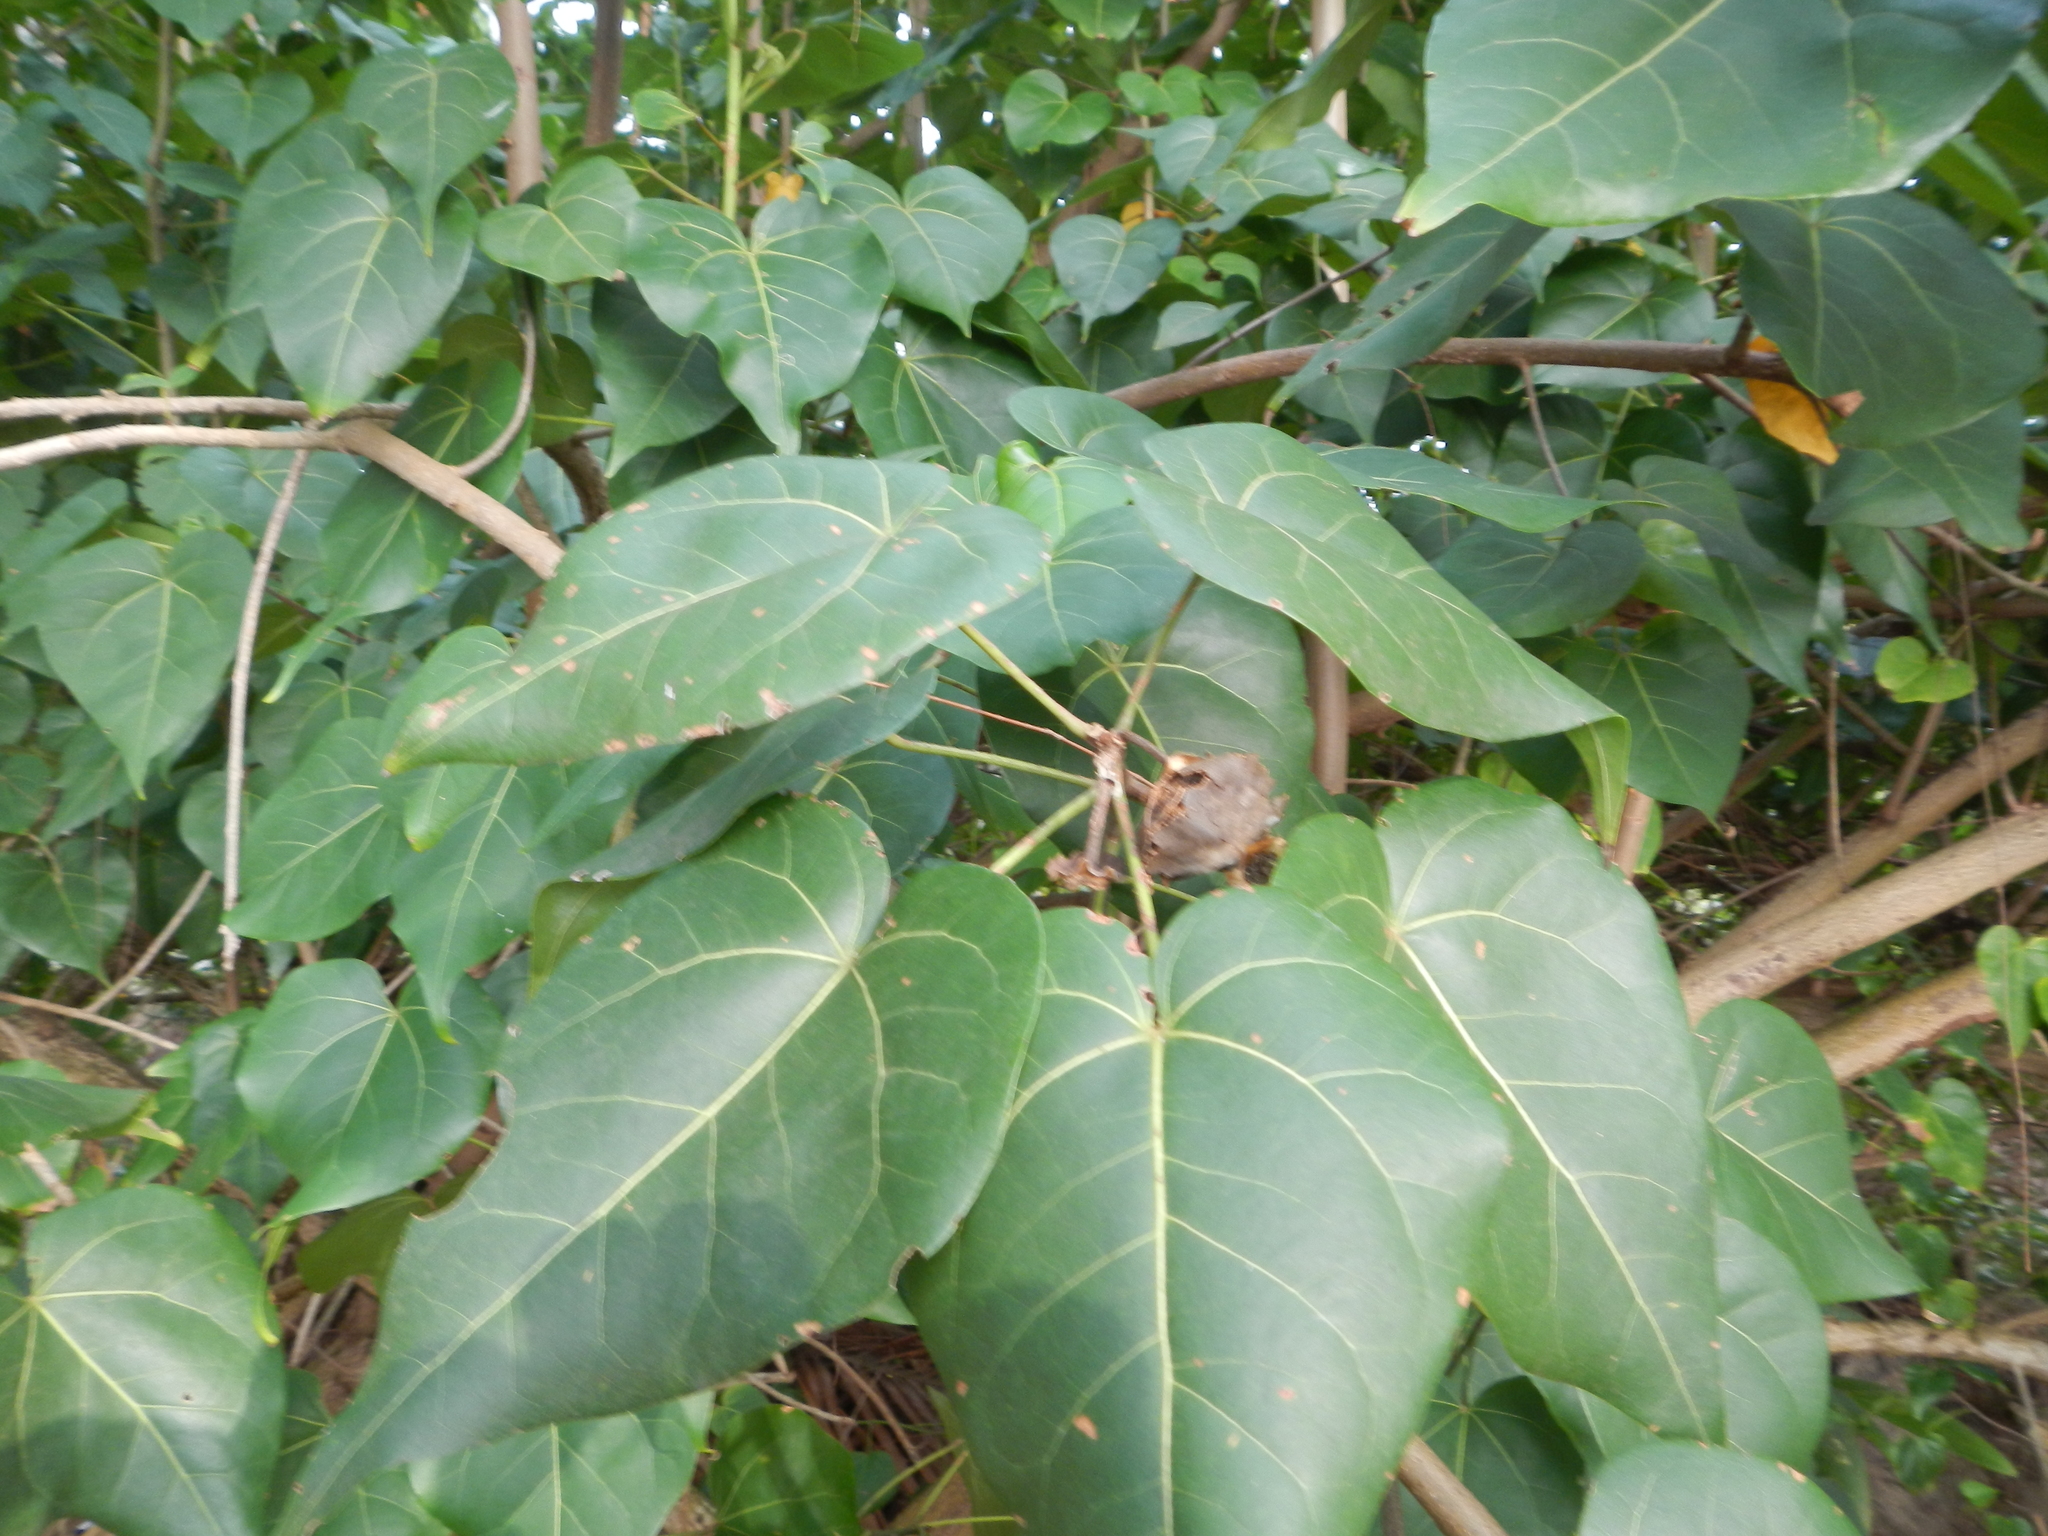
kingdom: Plantae
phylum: Tracheophyta
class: Magnoliopsida
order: Malvales
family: Malvaceae
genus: Thespesia
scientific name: Thespesia populnea
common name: Seaside mahoe
